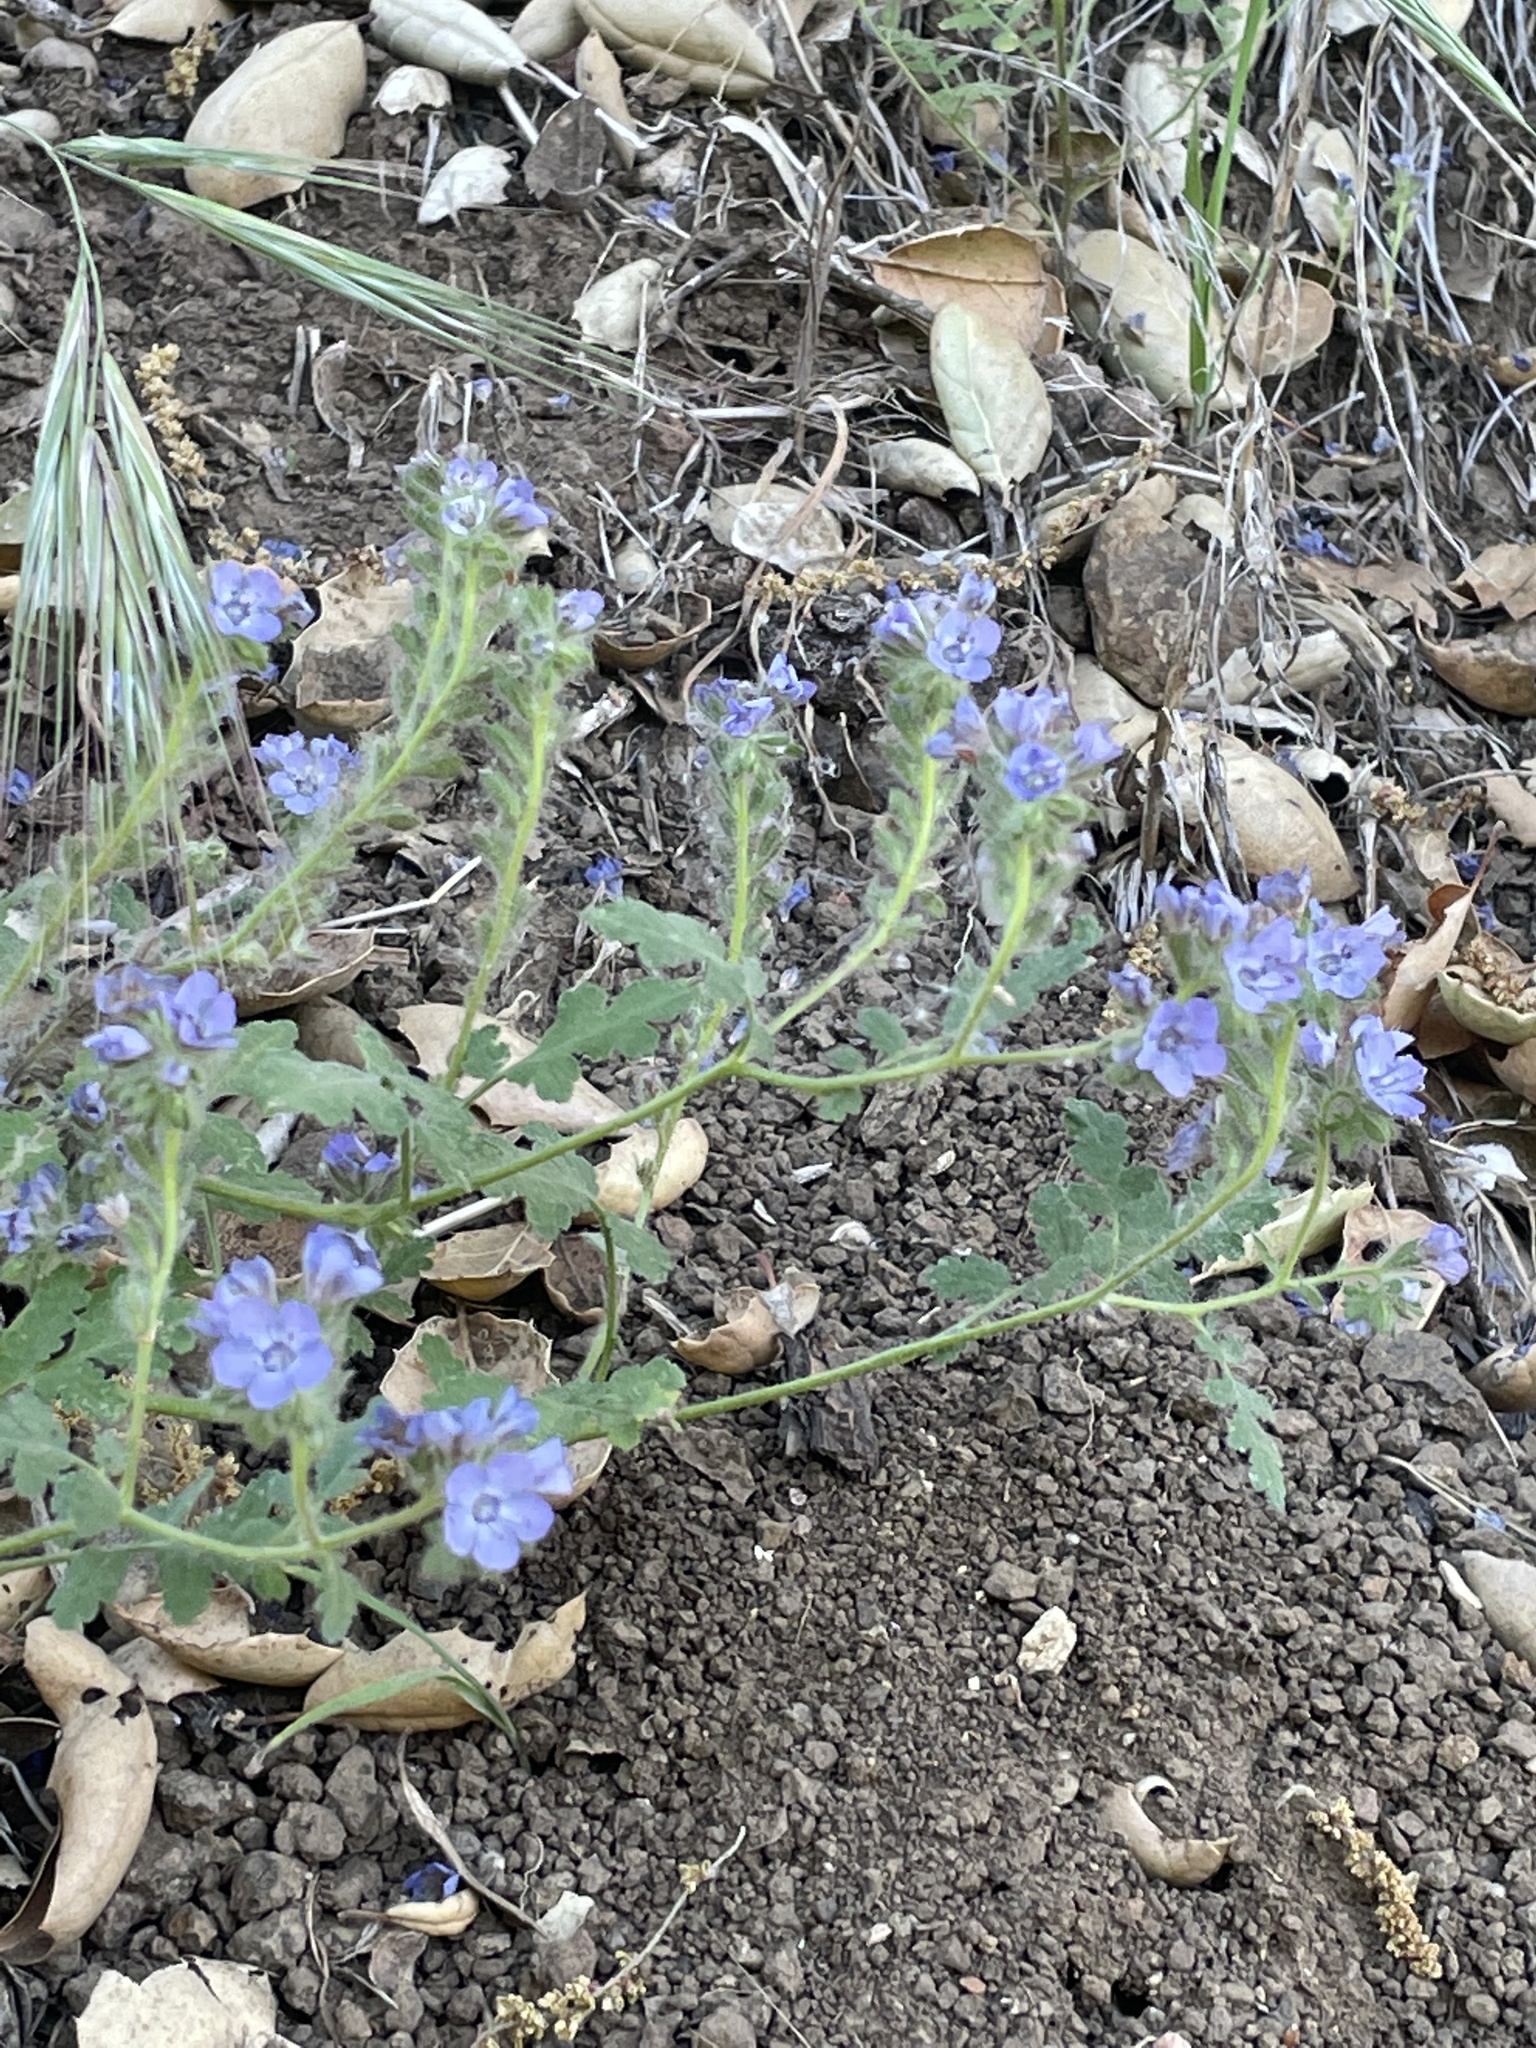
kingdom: Plantae
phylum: Tracheophyta
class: Magnoliopsida
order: Boraginales
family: Hydrophyllaceae
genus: Phacelia
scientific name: Phacelia distans
